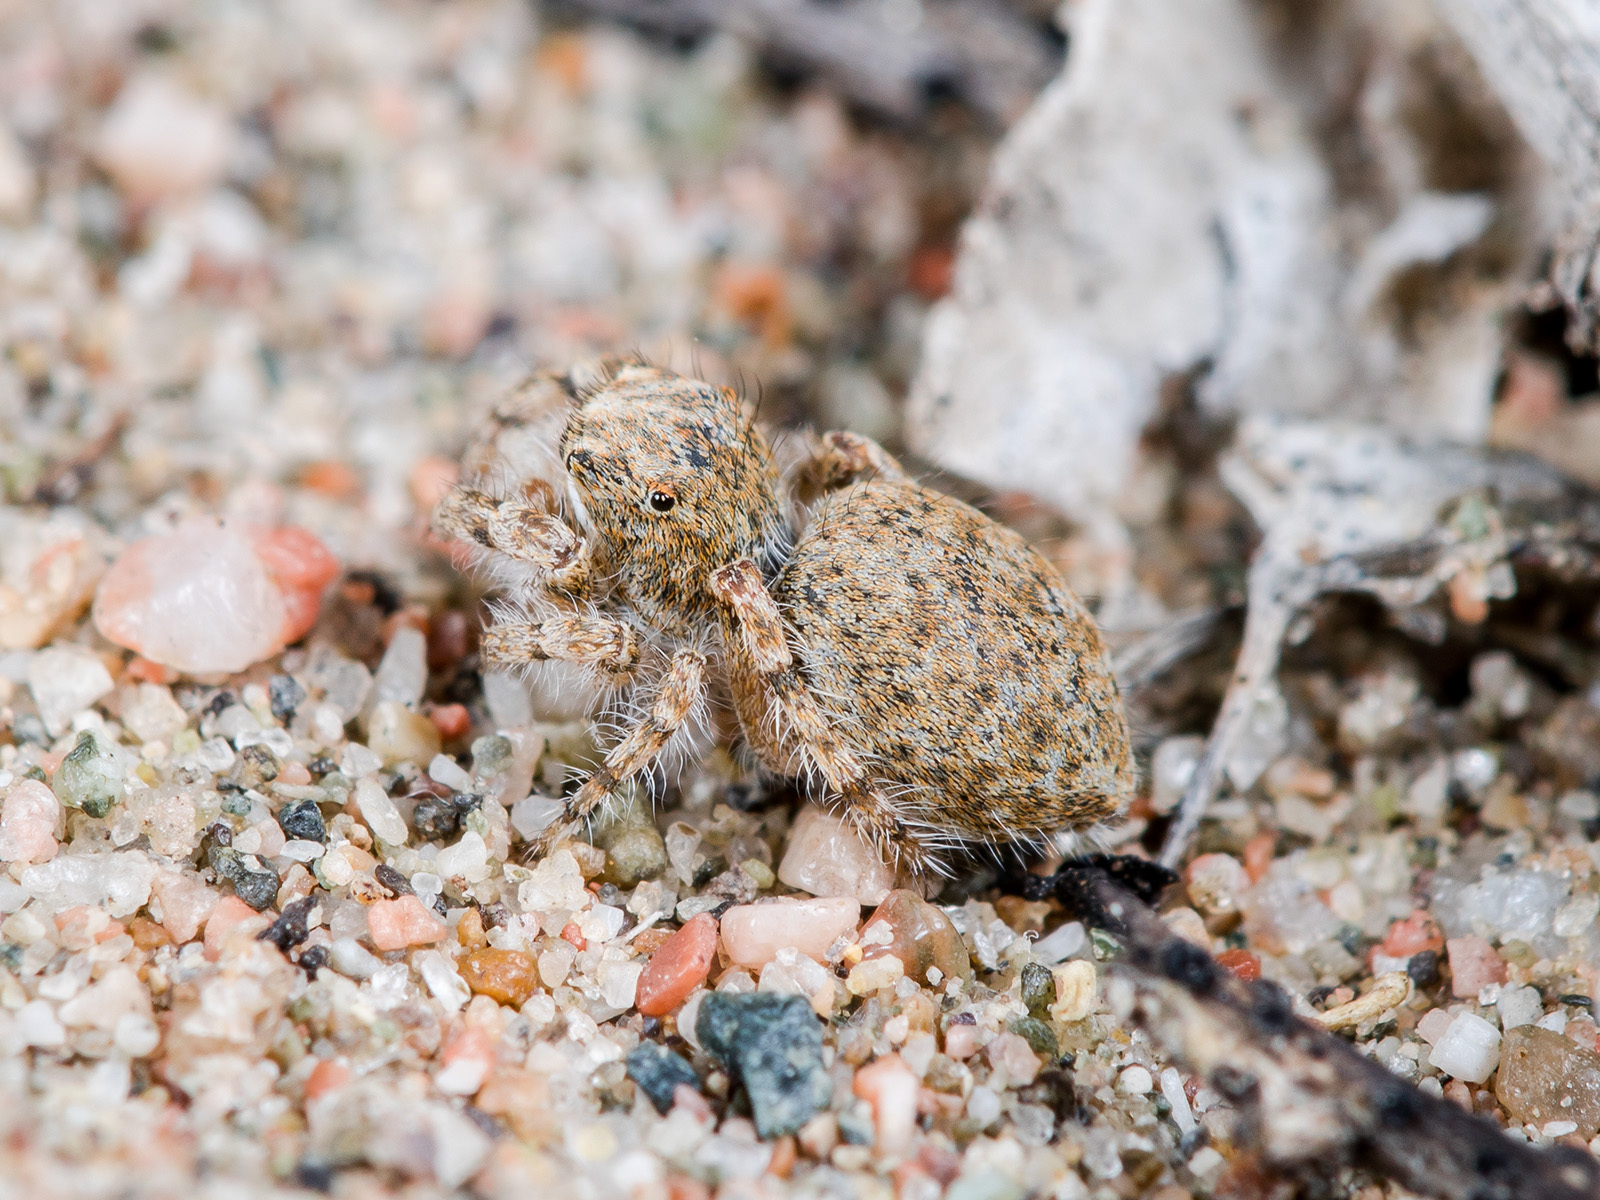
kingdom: Animalia
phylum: Arthropoda
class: Arachnida
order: Araneae
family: Salticidae
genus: Yllenus
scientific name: Yllenus turkestanicus
